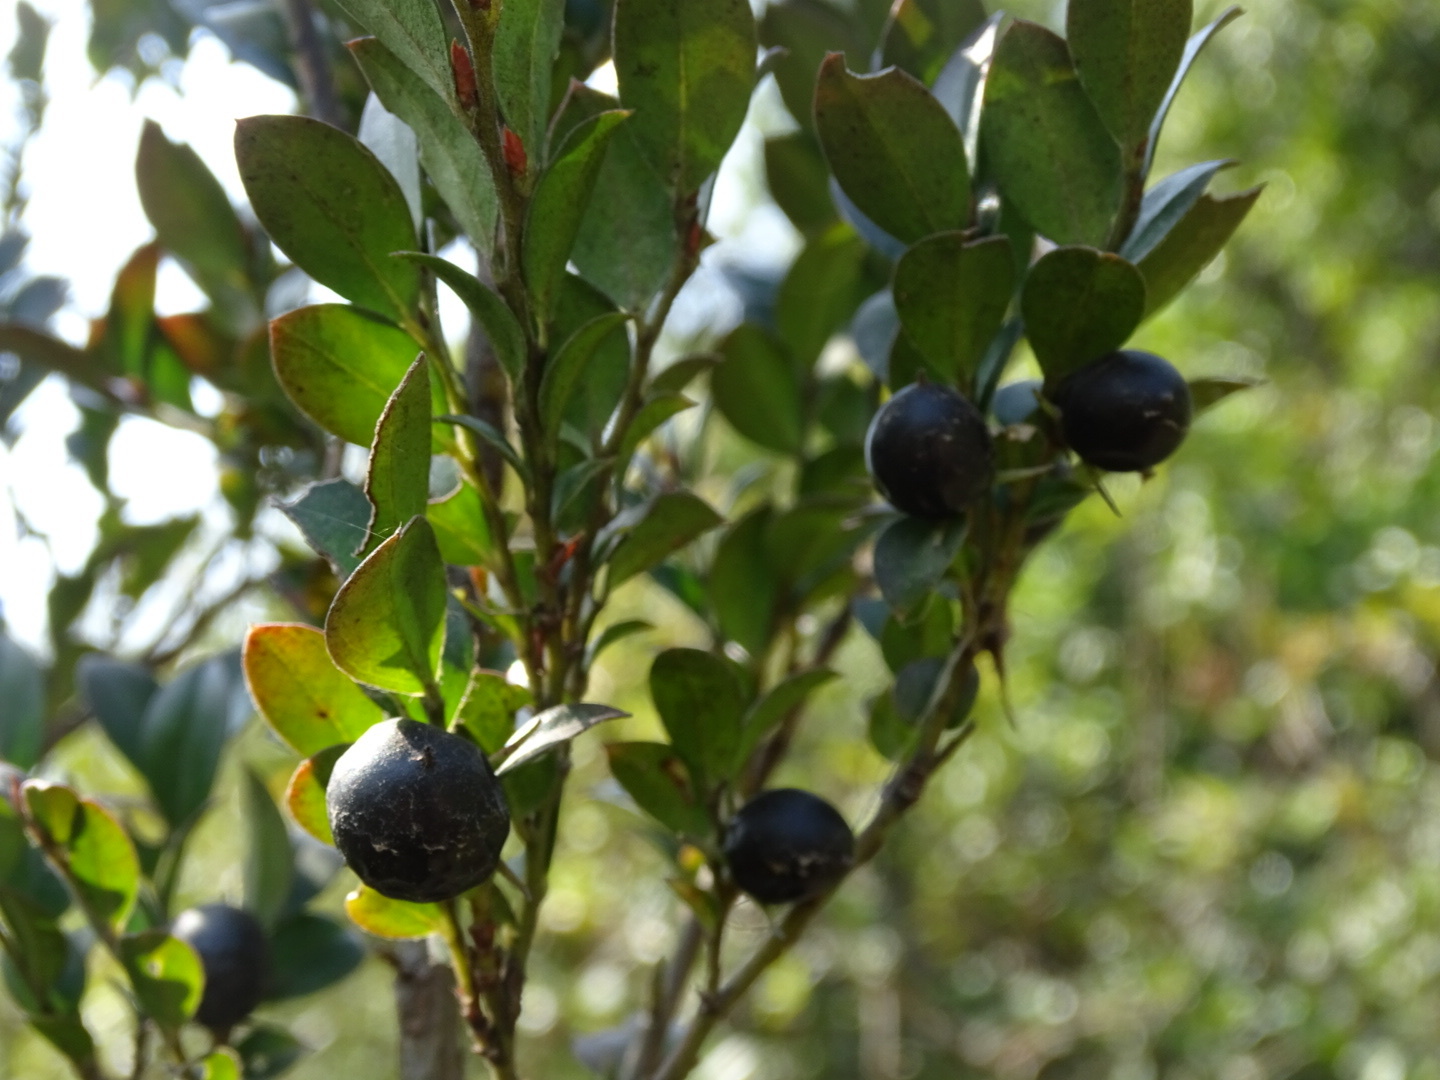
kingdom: Plantae
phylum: Tracheophyta
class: Magnoliopsida
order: Ericales
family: Ebenaceae
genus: Diospyros
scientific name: Diospyros vaccinioides
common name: Small persimmon
